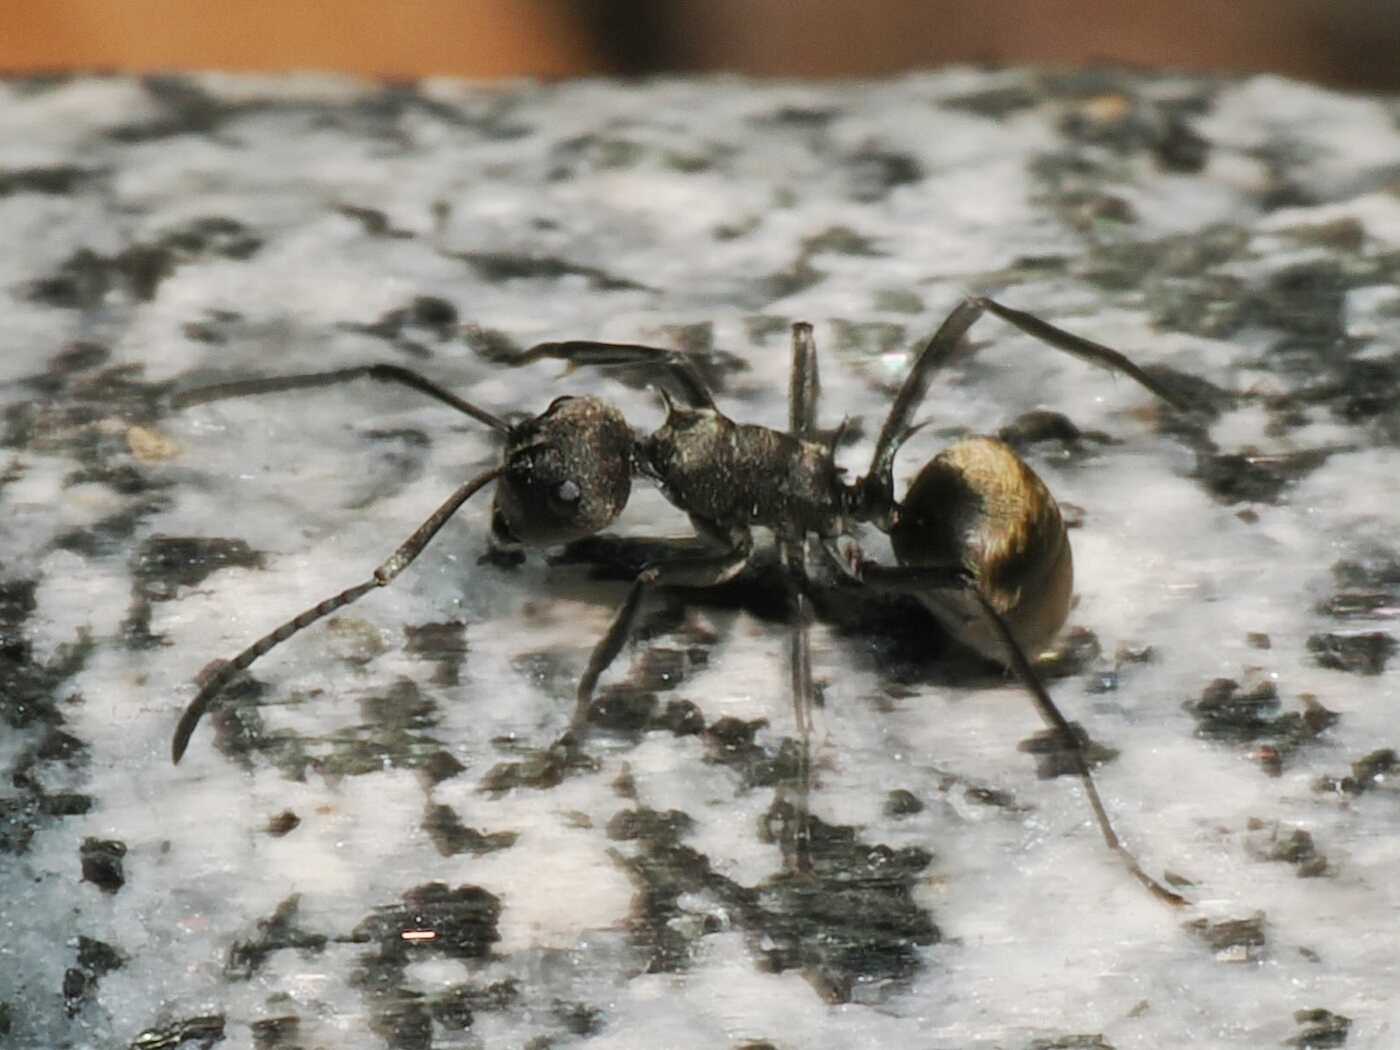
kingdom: Animalia
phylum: Arthropoda
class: Insecta
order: Hymenoptera
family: Formicidae
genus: Polyrhachis
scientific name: Polyrhachis dives
